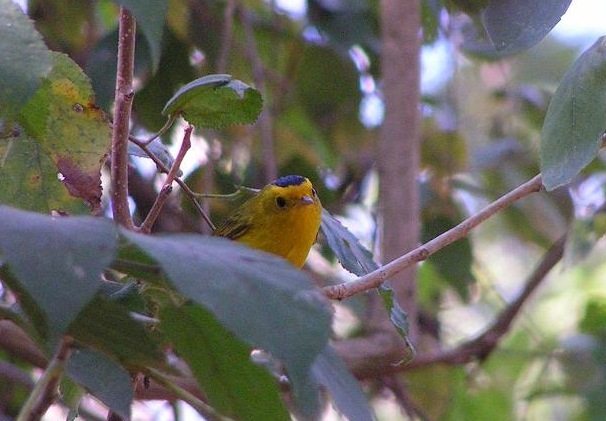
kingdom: Animalia
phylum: Chordata
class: Aves
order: Passeriformes
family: Parulidae
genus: Cardellina
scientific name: Cardellina pusilla
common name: Wilson's warbler
